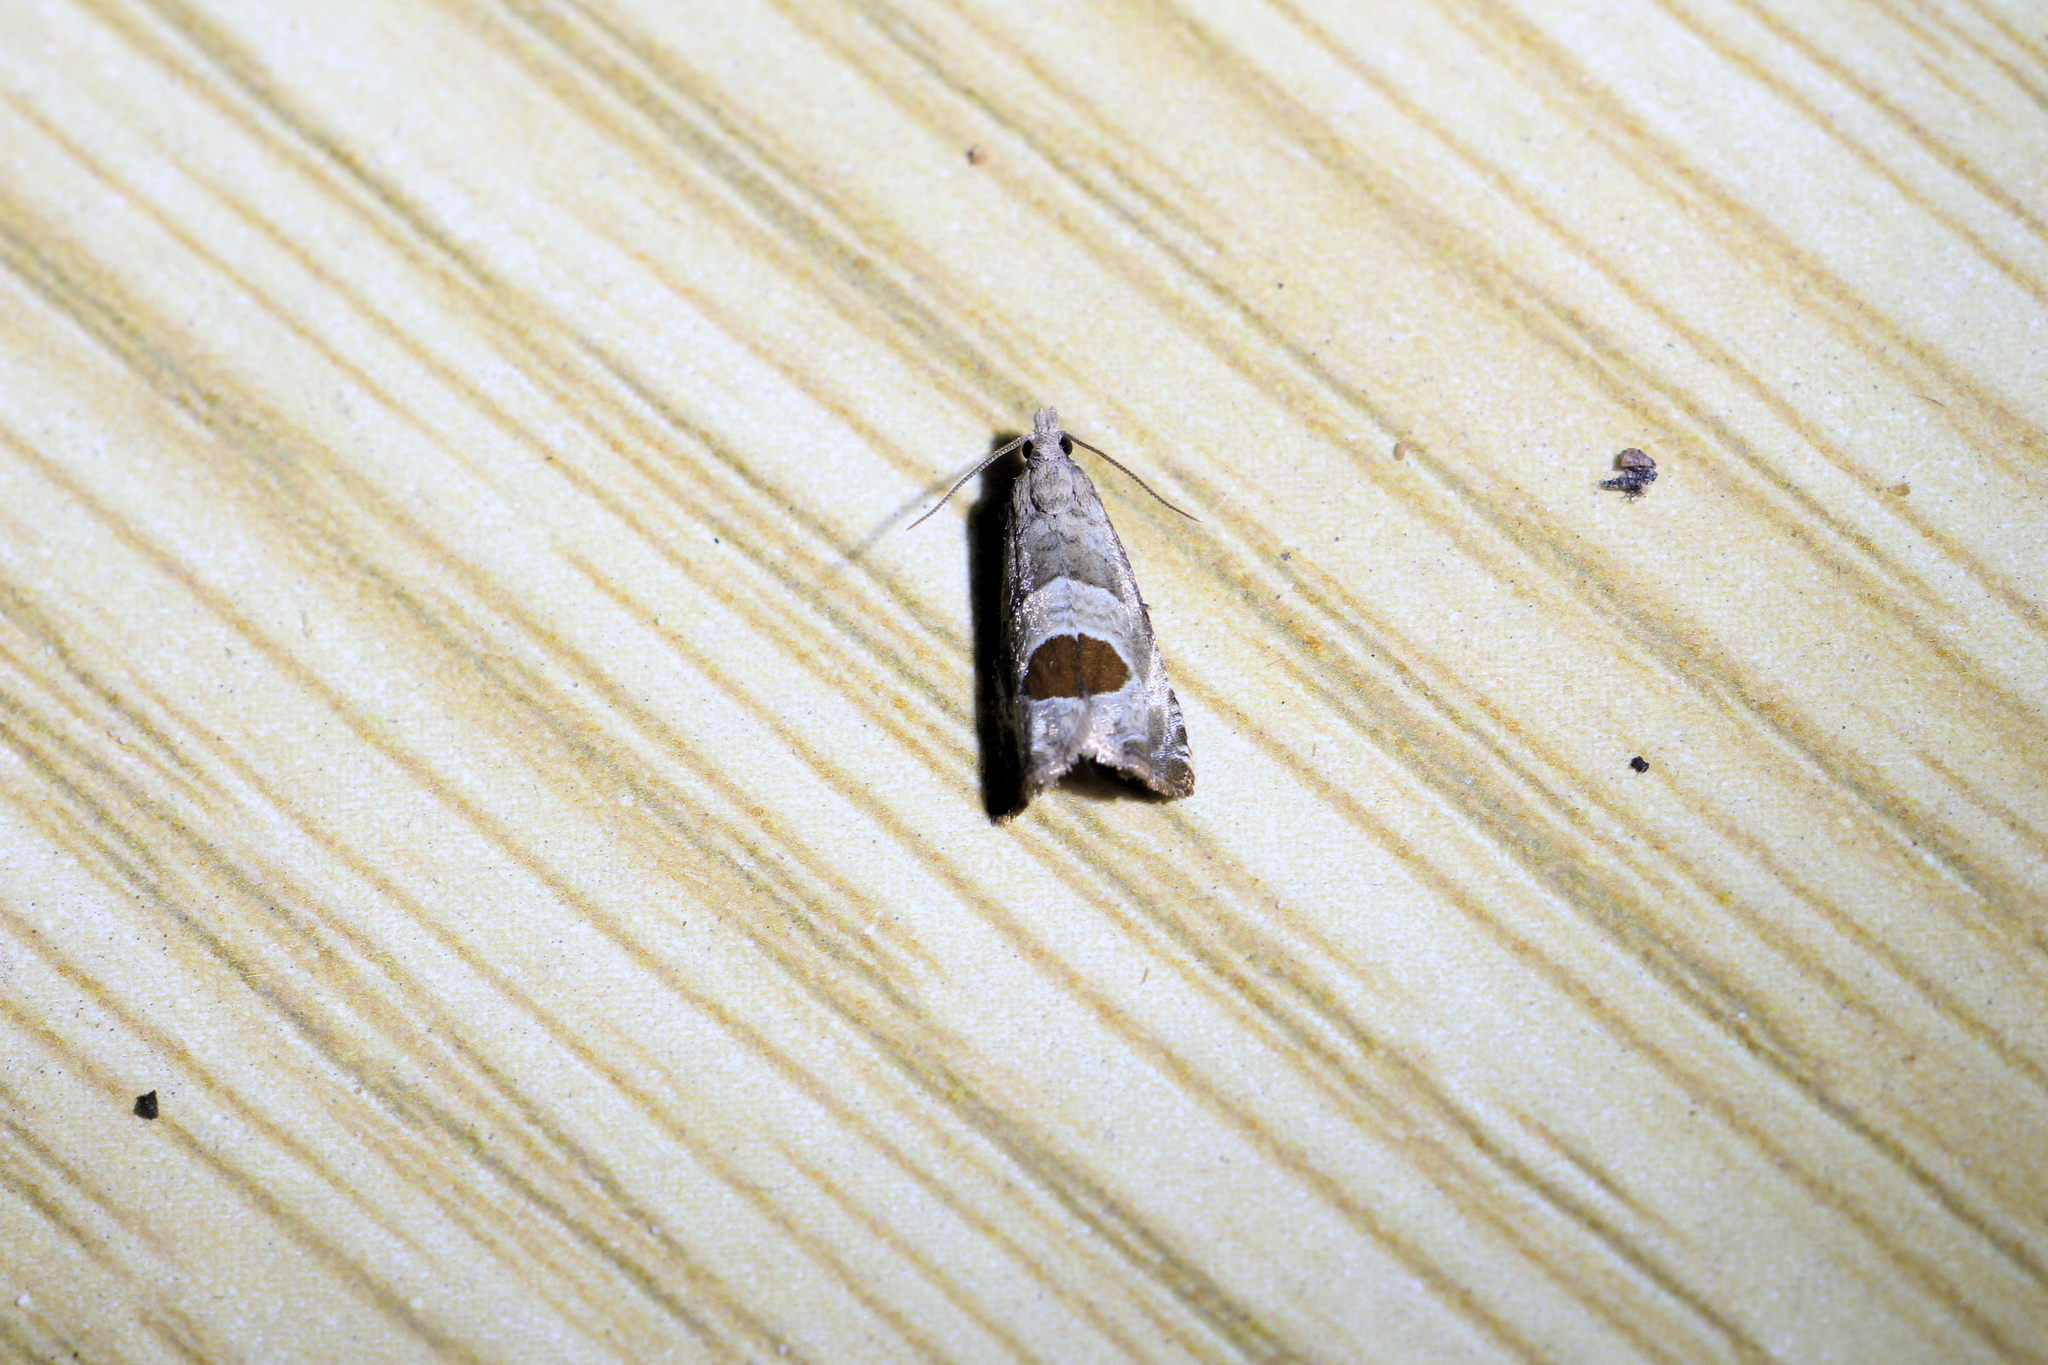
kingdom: Animalia
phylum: Arthropoda
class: Insecta
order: Lepidoptera
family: Tortricidae
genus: Notocelia
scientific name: Notocelia uddmanniana
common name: Bramble shoot moth
